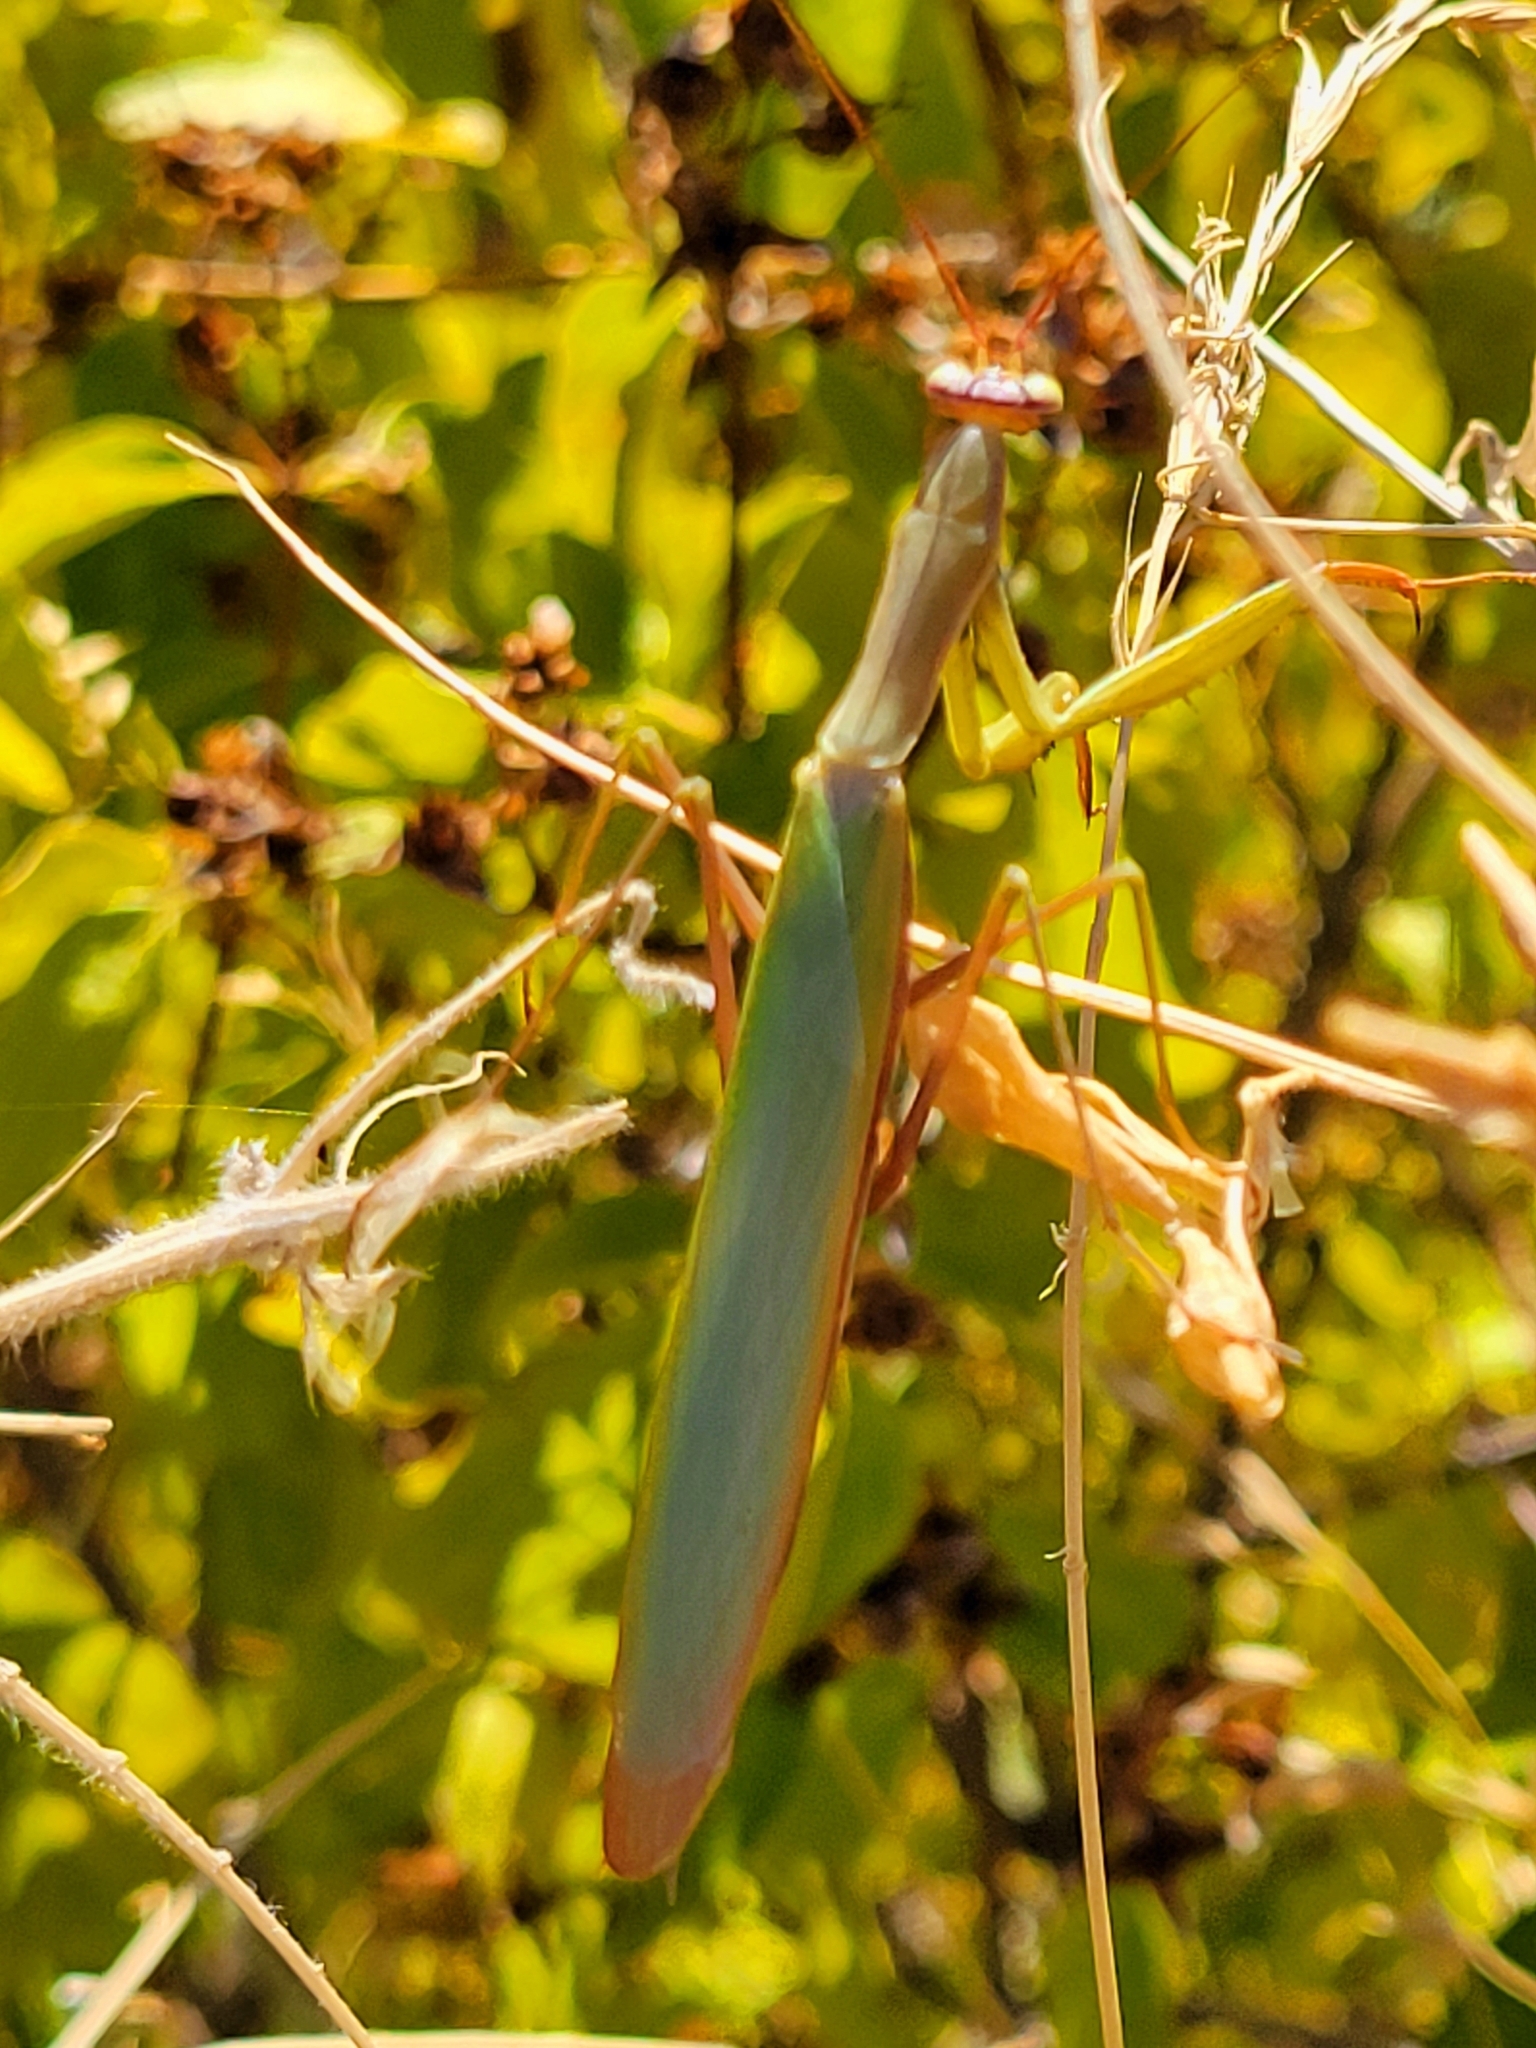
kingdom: Animalia
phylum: Arthropoda
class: Insecta
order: Mantodea
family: Mantidae
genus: Mantis
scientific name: Mantis religiosa
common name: Praying mantis
